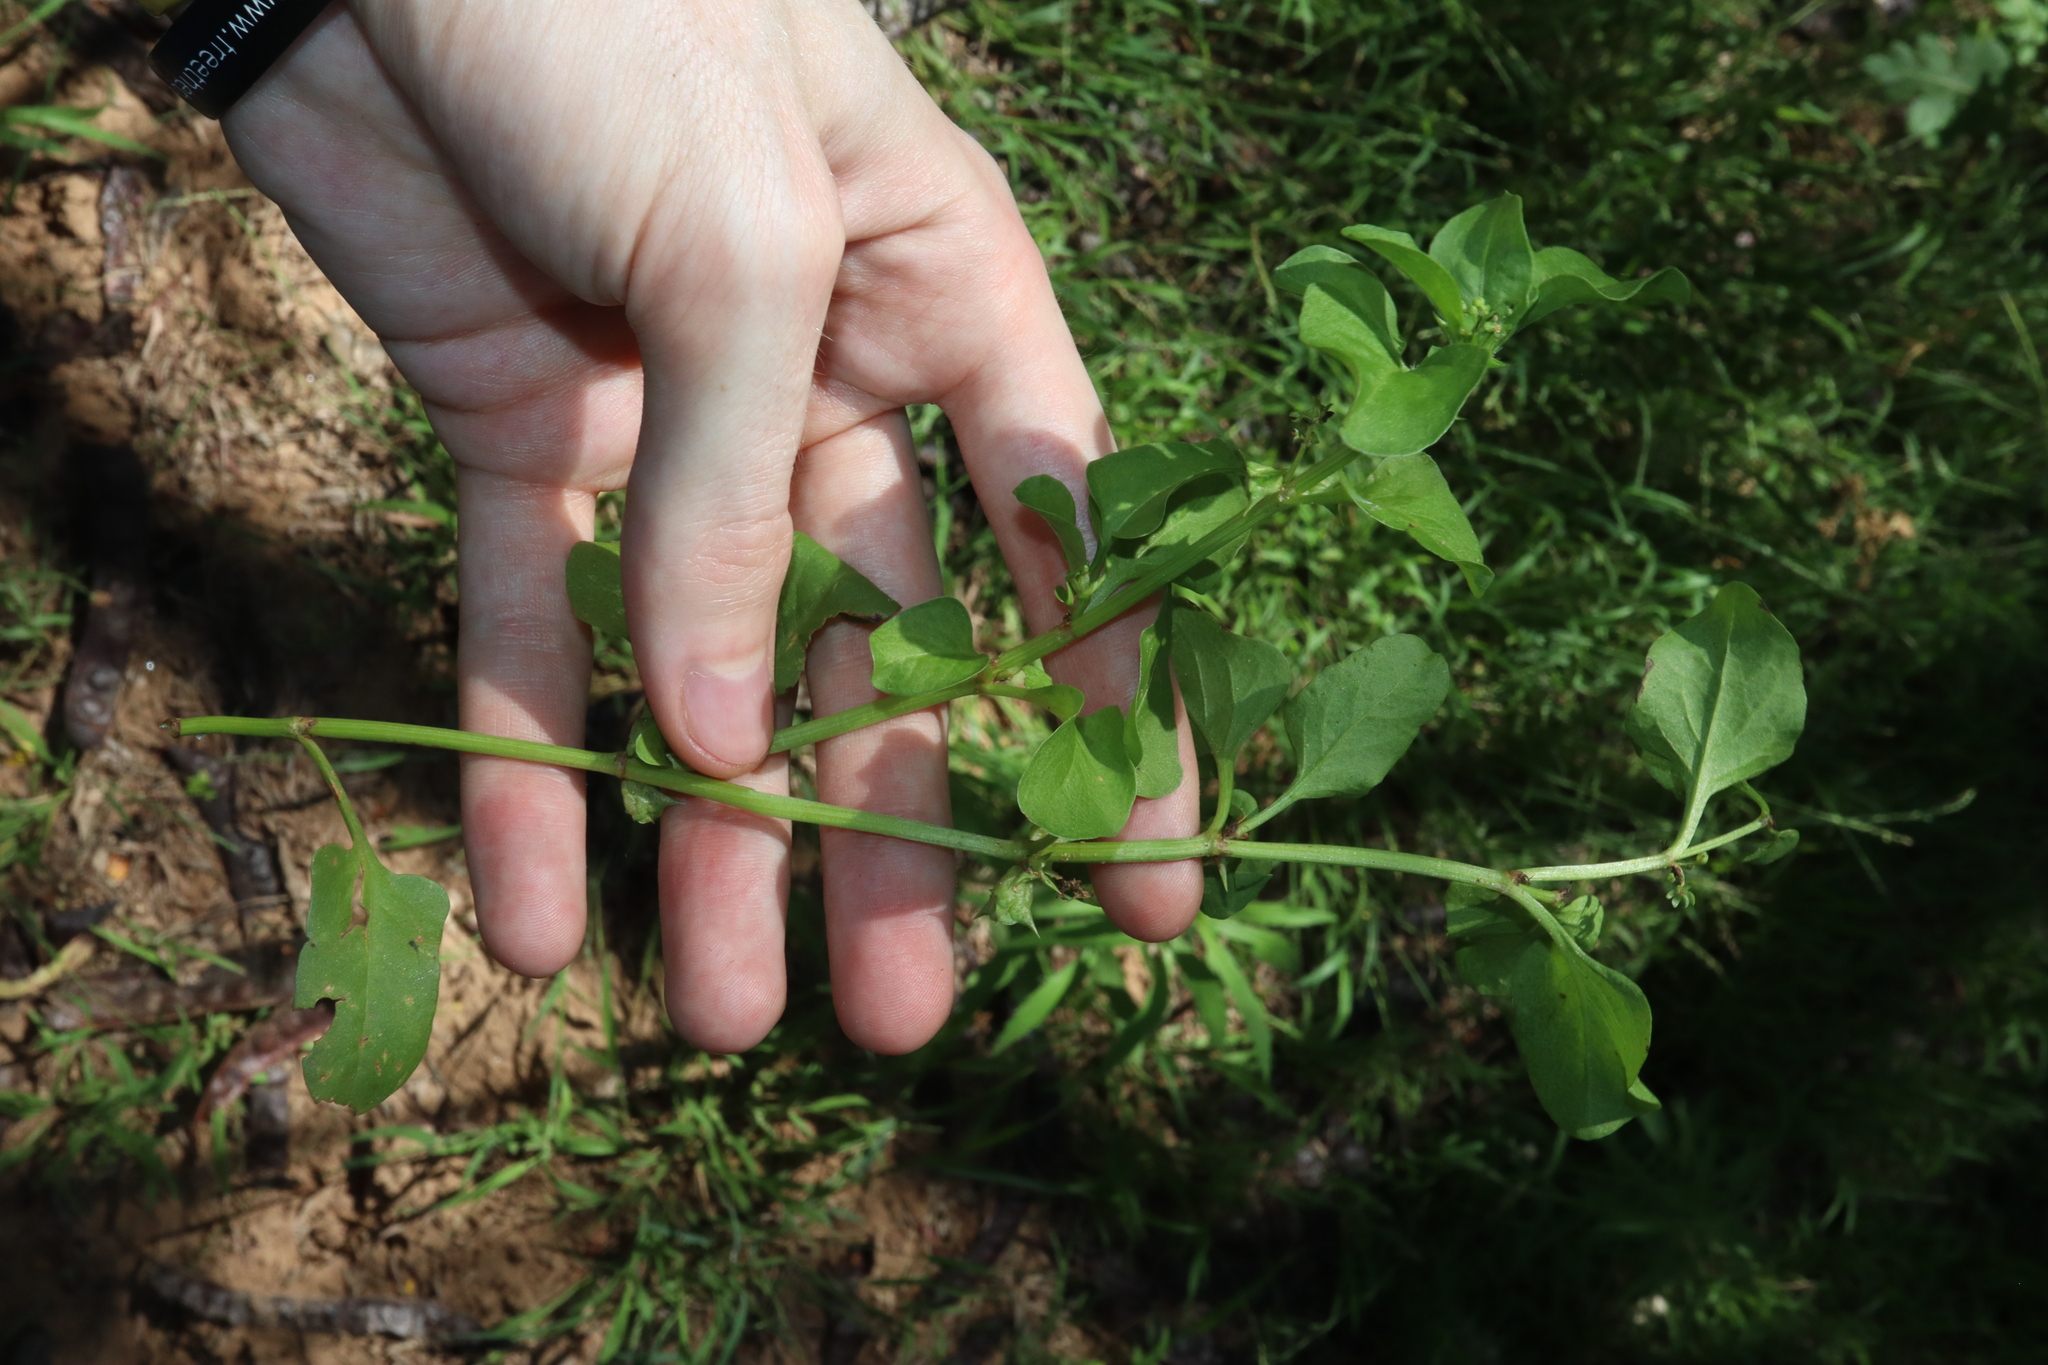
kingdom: Plantae
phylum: Tracheophyta
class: Magnoliopsida
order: Caryophyllales
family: Polygonaceae
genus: Rumex
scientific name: Rumex hypogaeus
